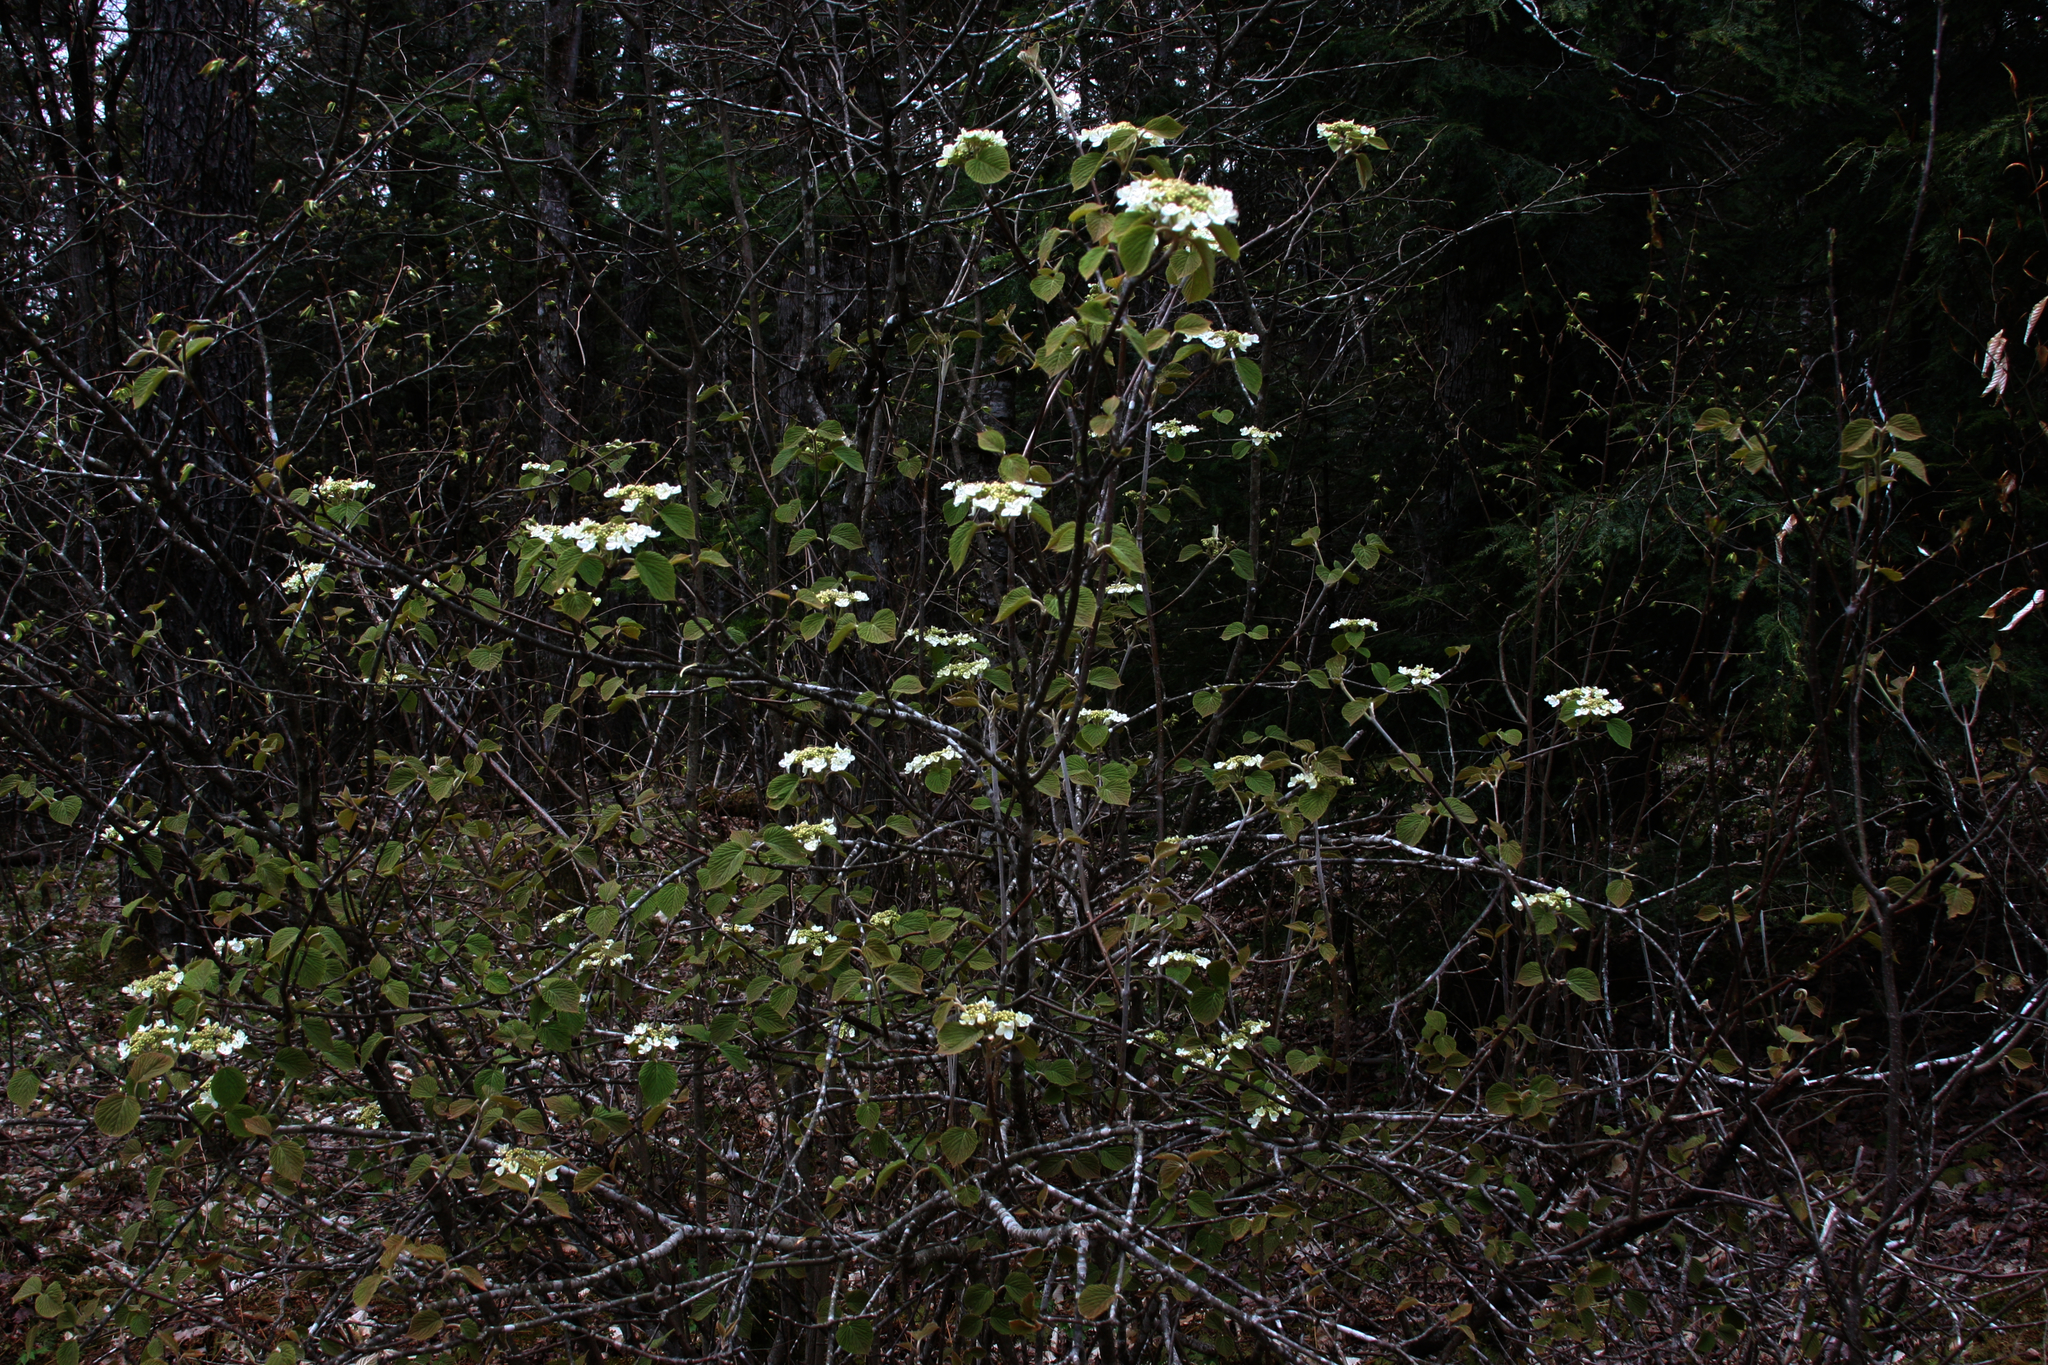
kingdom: Plantae
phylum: Tracheophyta
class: Magnoliopsida
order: Dipsacales
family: Viburnaceae
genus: Viburnum
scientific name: Viburnum lantanoides
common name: Hobblebush
